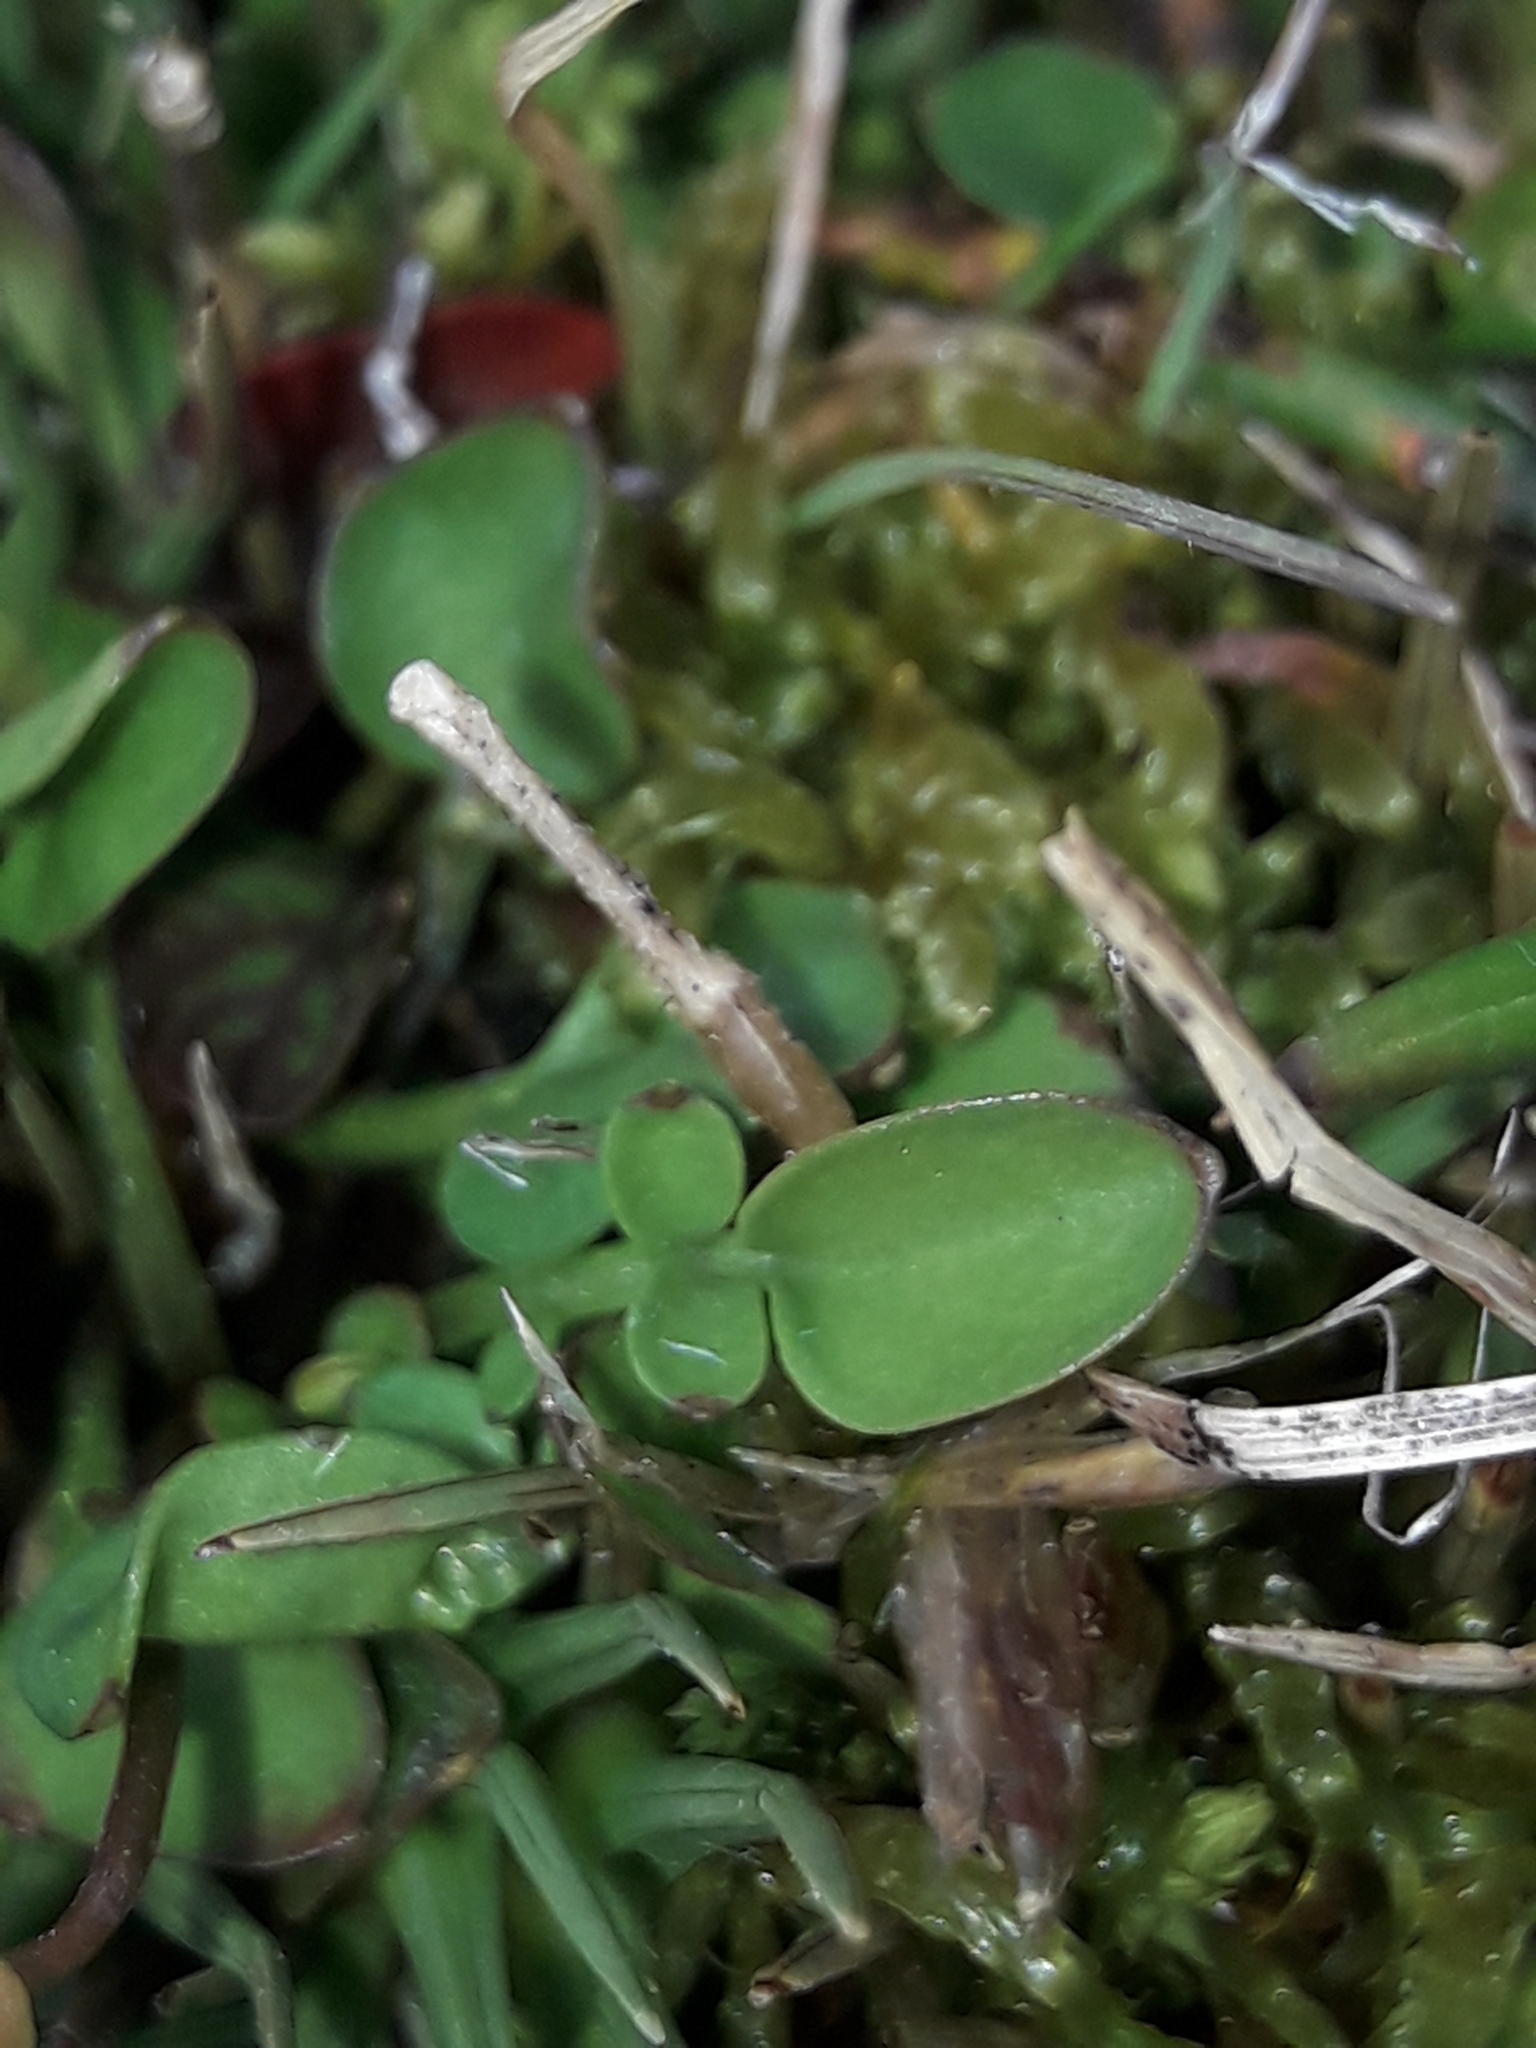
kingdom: Plantae
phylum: Tracheophyta
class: Magnoliopsida
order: Brassicales
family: Brassicaceae
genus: Cardamine
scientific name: Cardamine reptans
